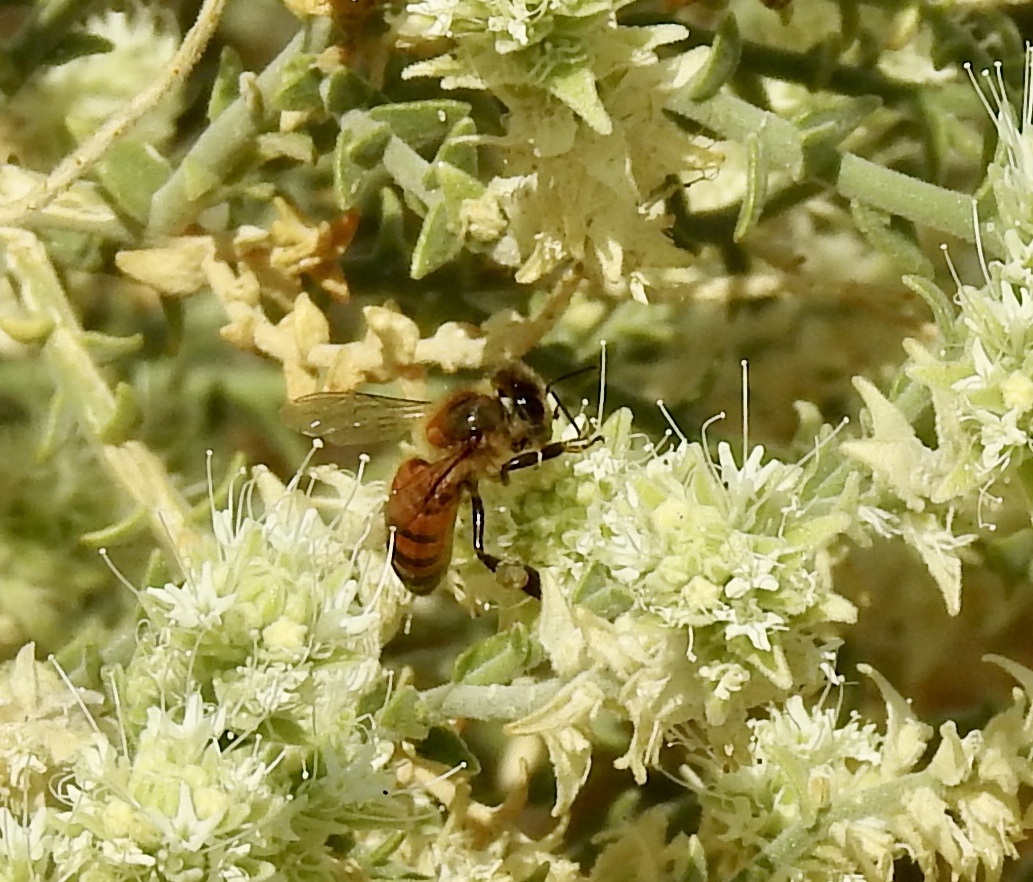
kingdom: Animalia
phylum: Arthropoda
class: Insecta
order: Hymenoptera
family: Apidae
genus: Apis
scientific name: Apis mellifera
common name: Honey bee
